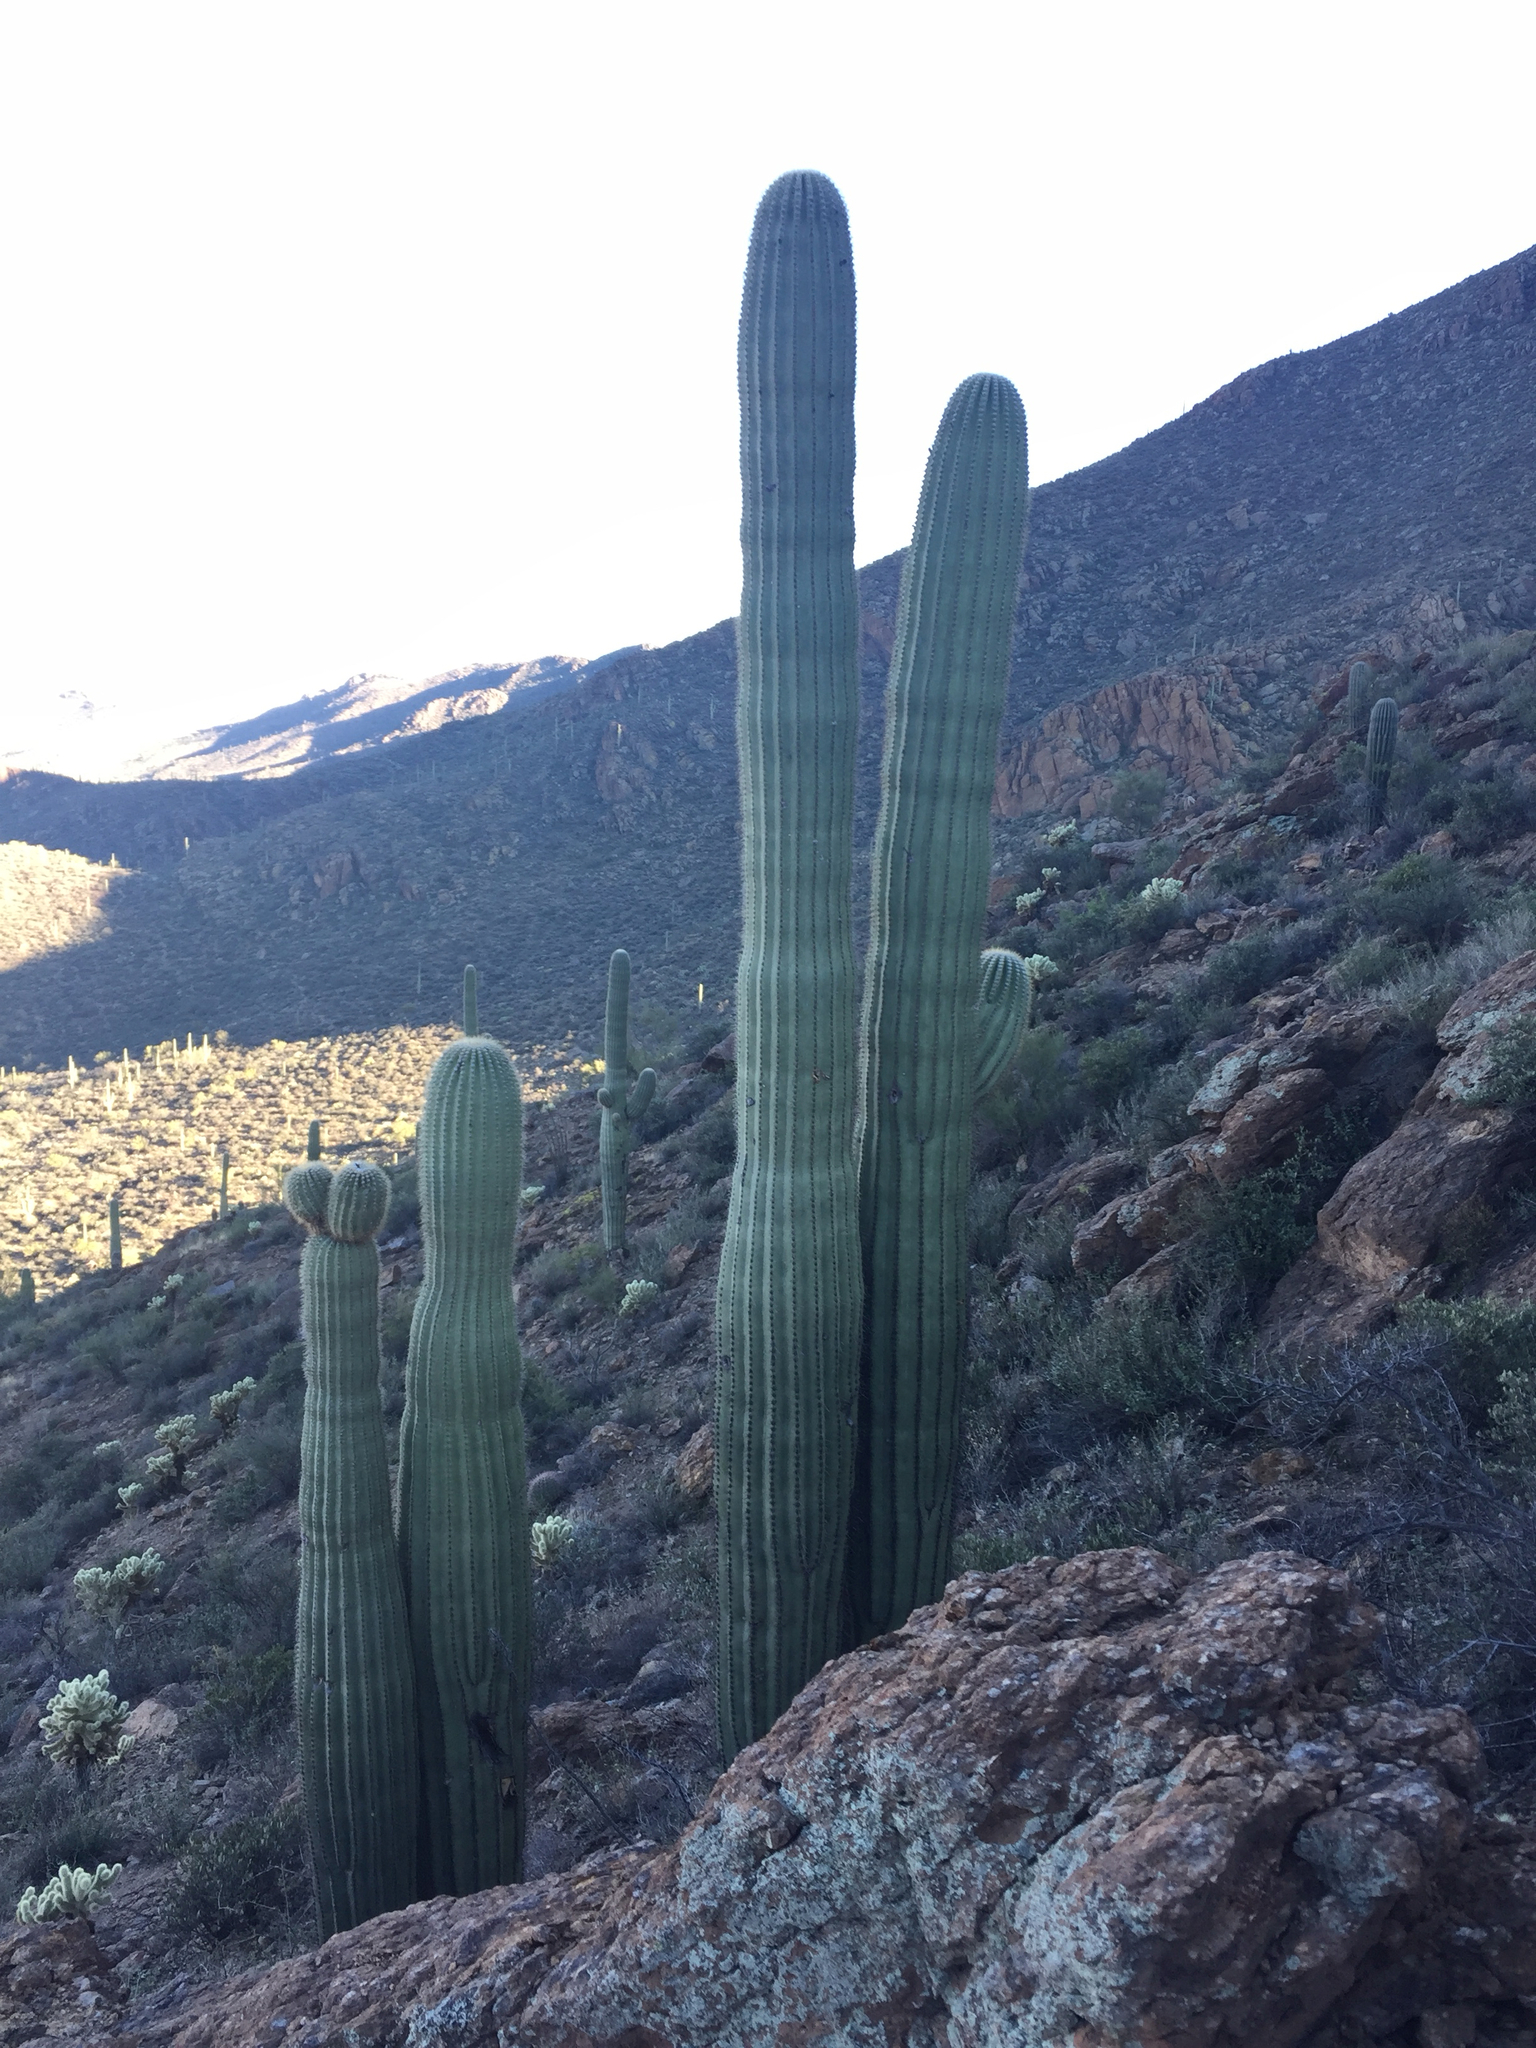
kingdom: Plantae
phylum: Tracheophyta
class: Magnoliopsida
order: Caryophyllales
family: Cactaceae
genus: Carnegiea
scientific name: Carnegiea gigantea
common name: Saguaro
